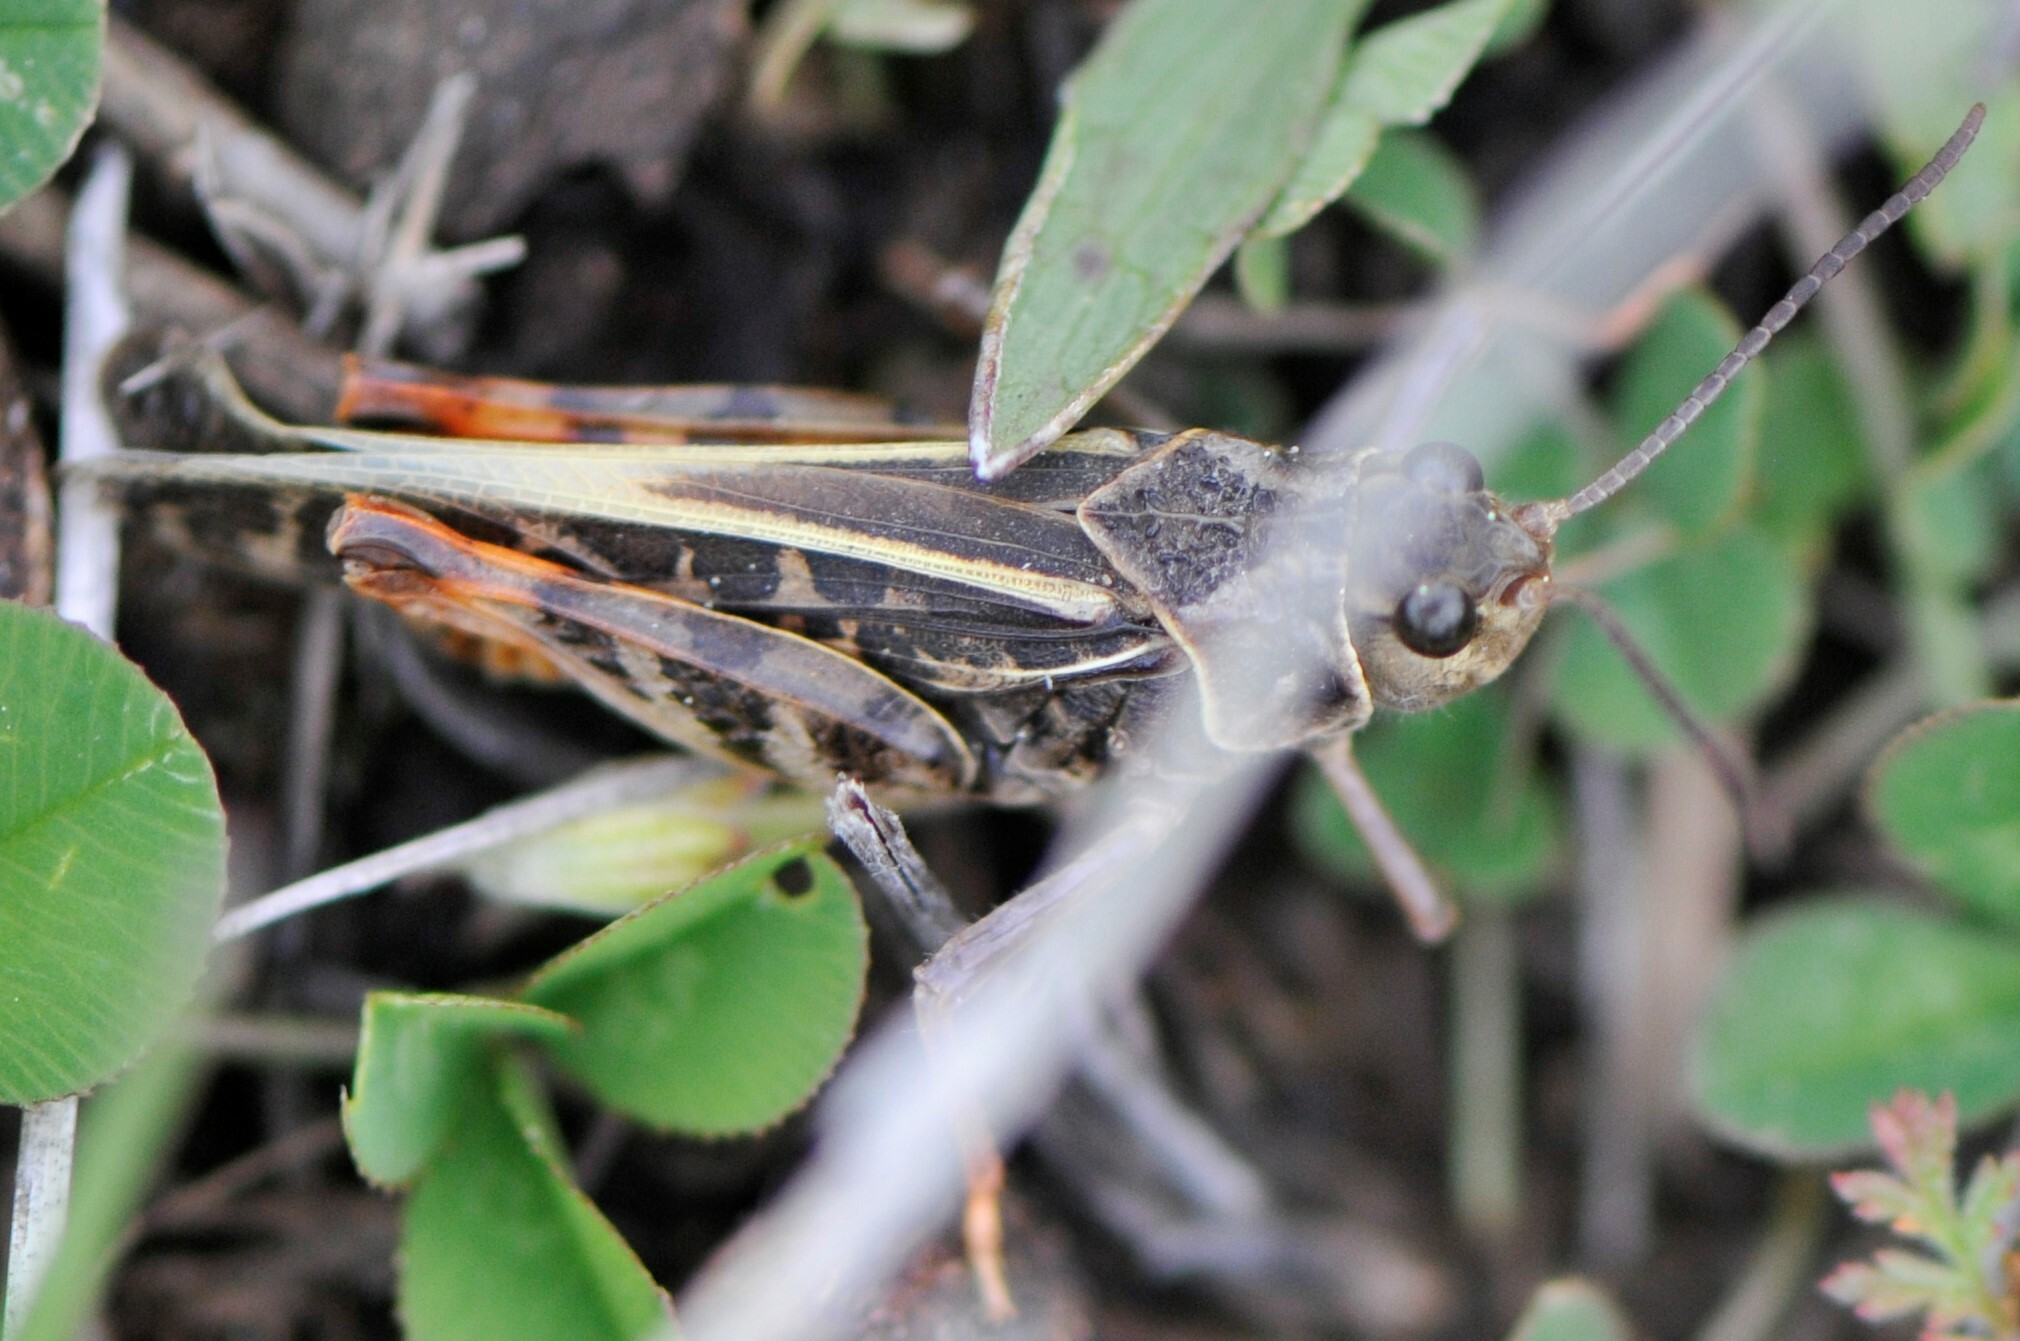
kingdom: Animalia
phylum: Arthropoda
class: Insecta
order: Orthoptera
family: Acrididae
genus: Xanthippus
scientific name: Xanthippus corallipes
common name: Redshanked grasshopper
